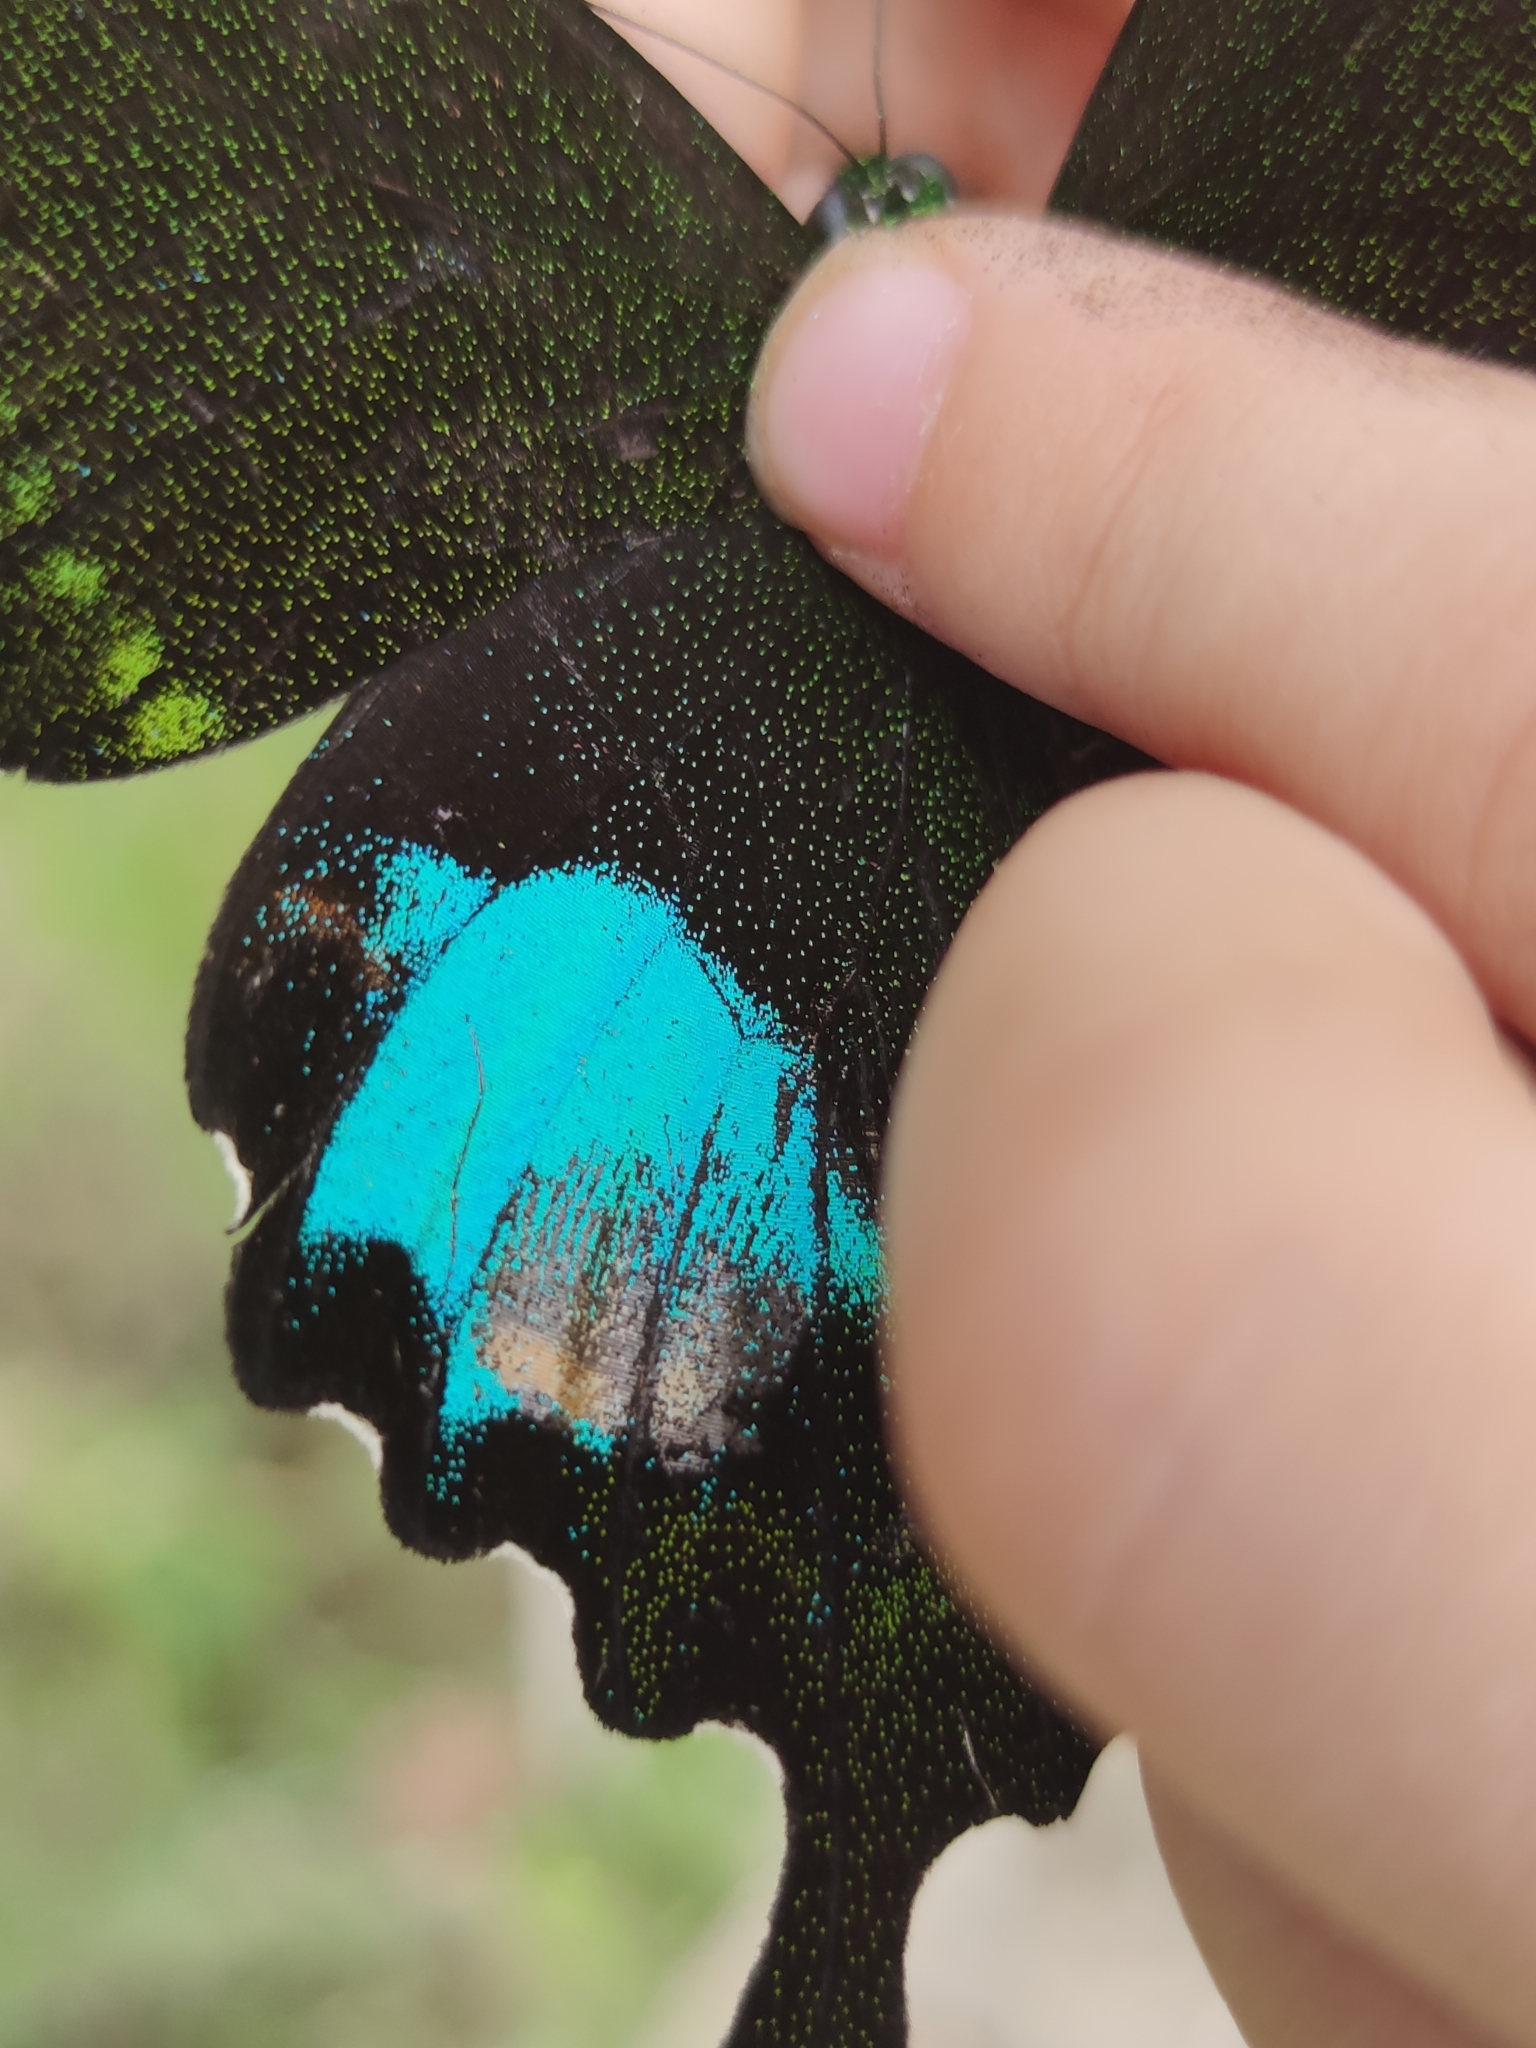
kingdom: Animalia
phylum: Arthropoda
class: Insecta
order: Lepidoptera
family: Papilionidae
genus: Papilio
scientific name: Papilio paris
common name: Paris peacock
